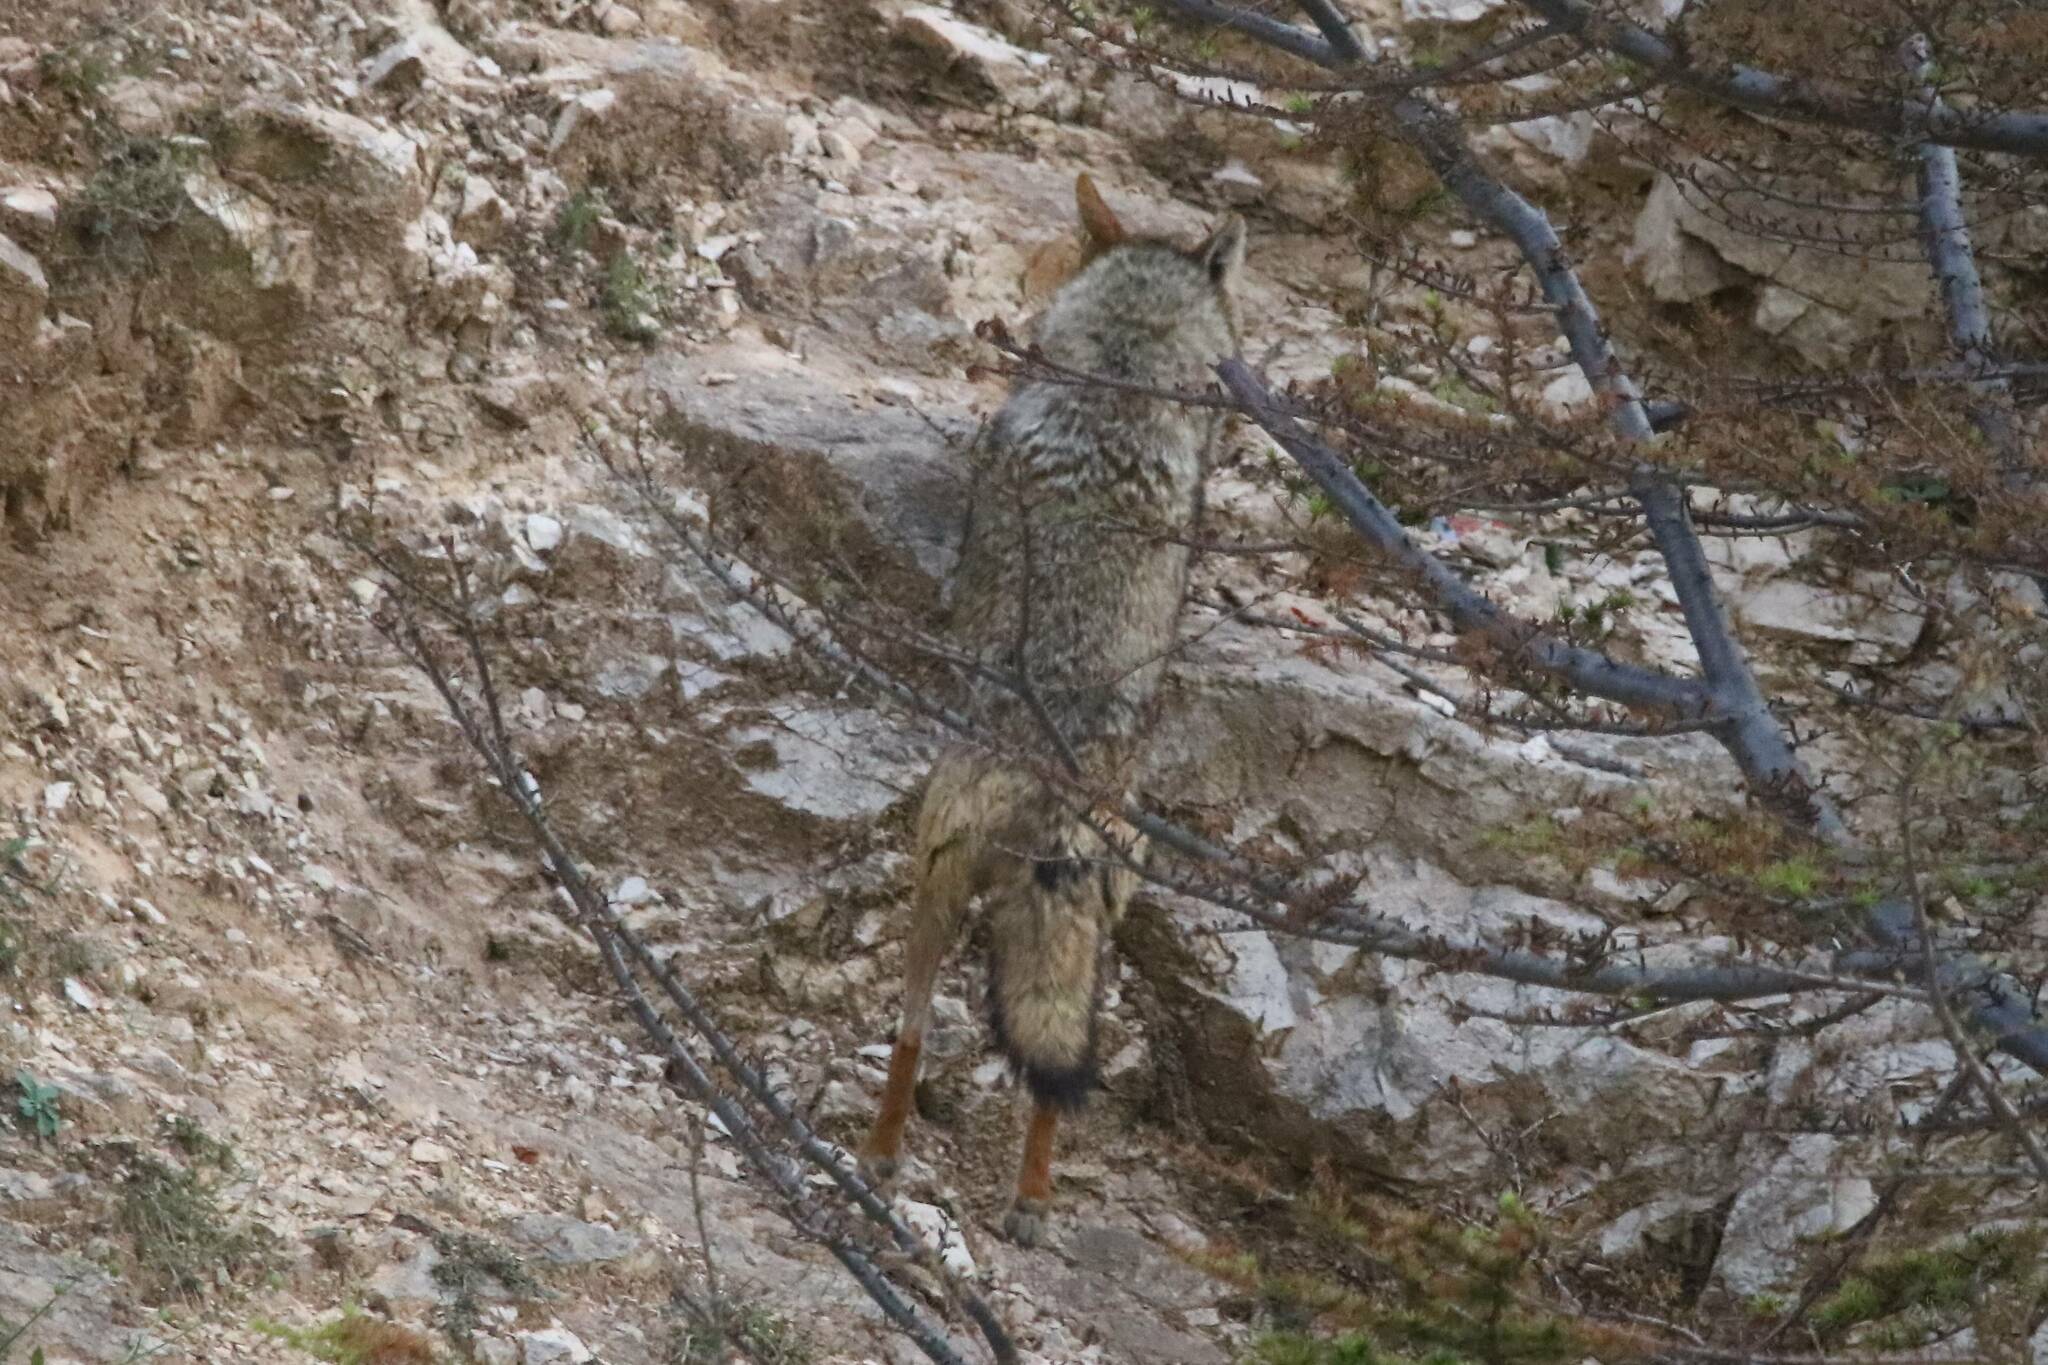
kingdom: Animalia
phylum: Chordata
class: Mammalia
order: Carnivora
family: Canidae
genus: Canis
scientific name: Canis lupaster
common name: African golden wolf
